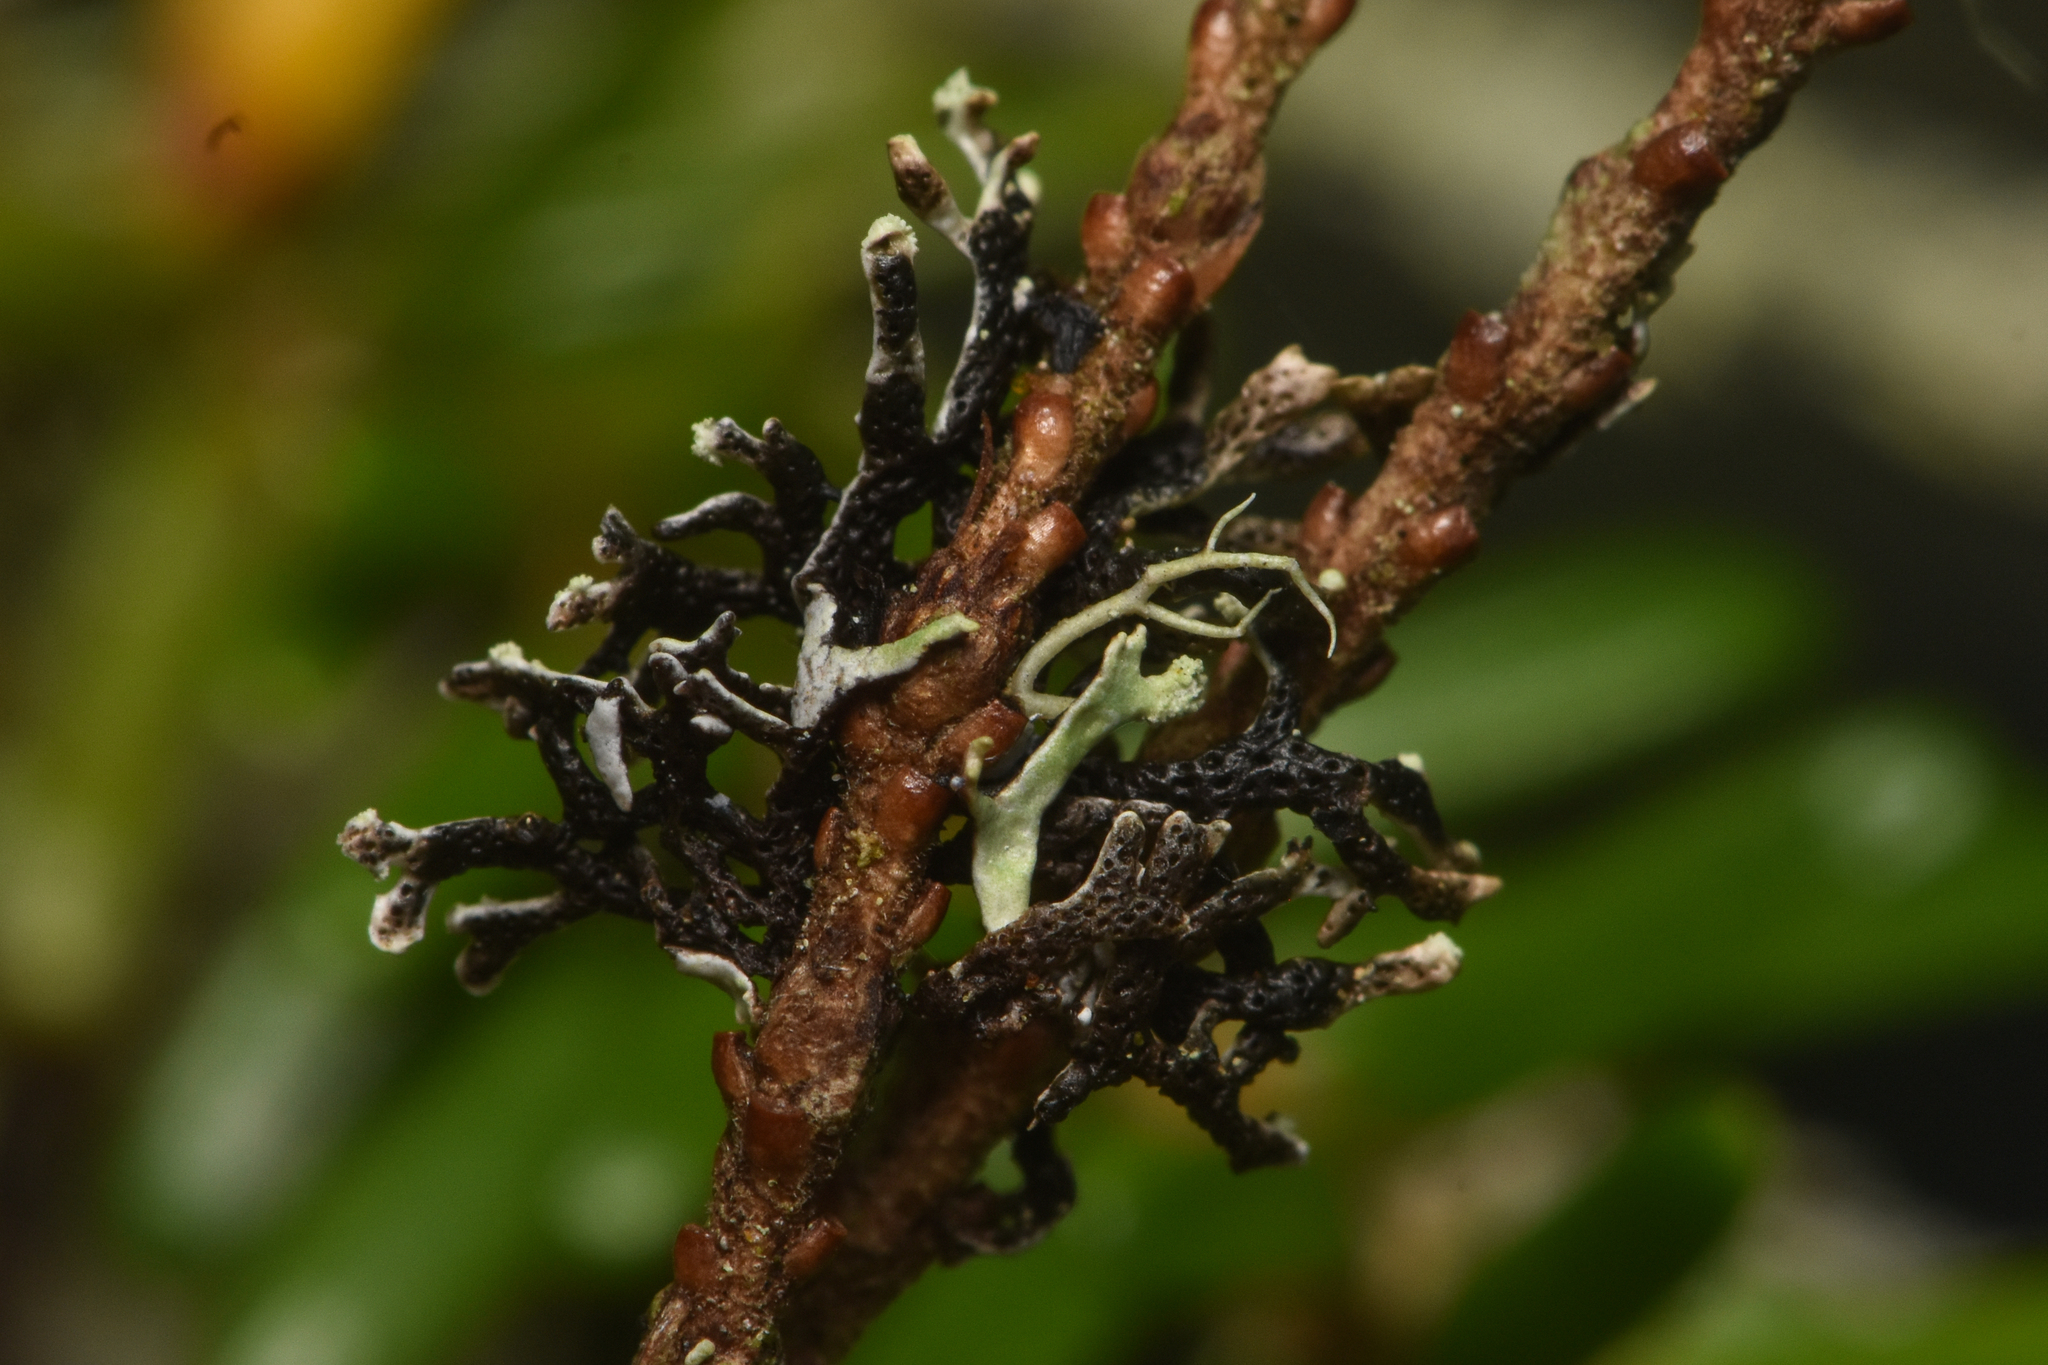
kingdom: Fungi
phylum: Ascomycota
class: Lecanoromycetes
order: Lecanorales
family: Parmeliaceae
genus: Hypogymnia
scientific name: Hypogymnia hultenii
